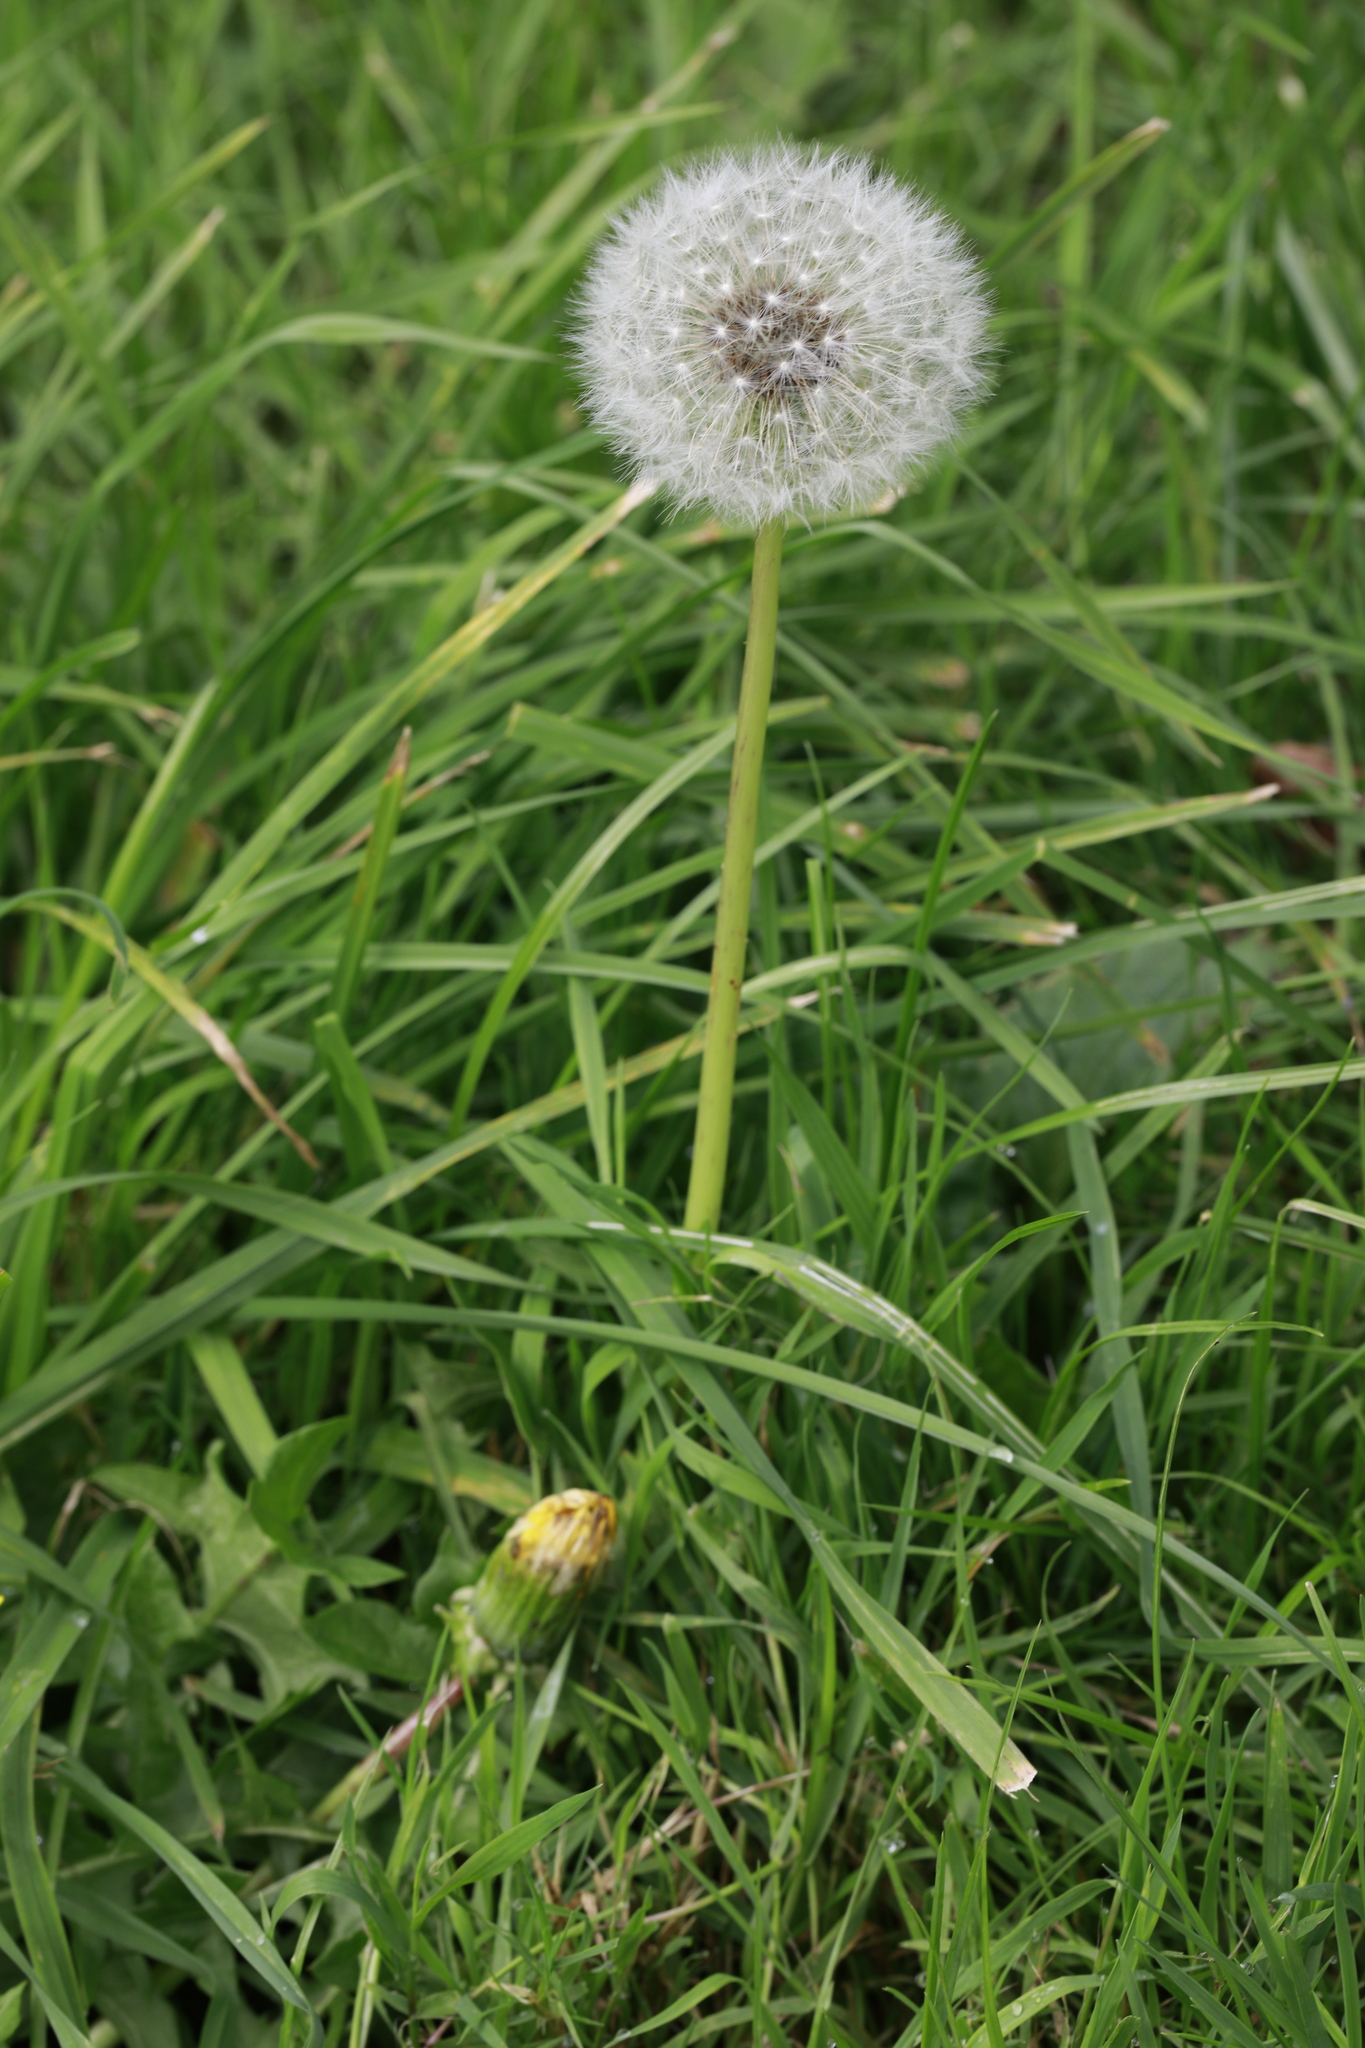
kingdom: Plantae
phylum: Tracheophyta
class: Magnoliopsida
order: Asterales
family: Asteraceae
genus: Taraxacum
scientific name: Taraxacum officinale
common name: Common dandelion
